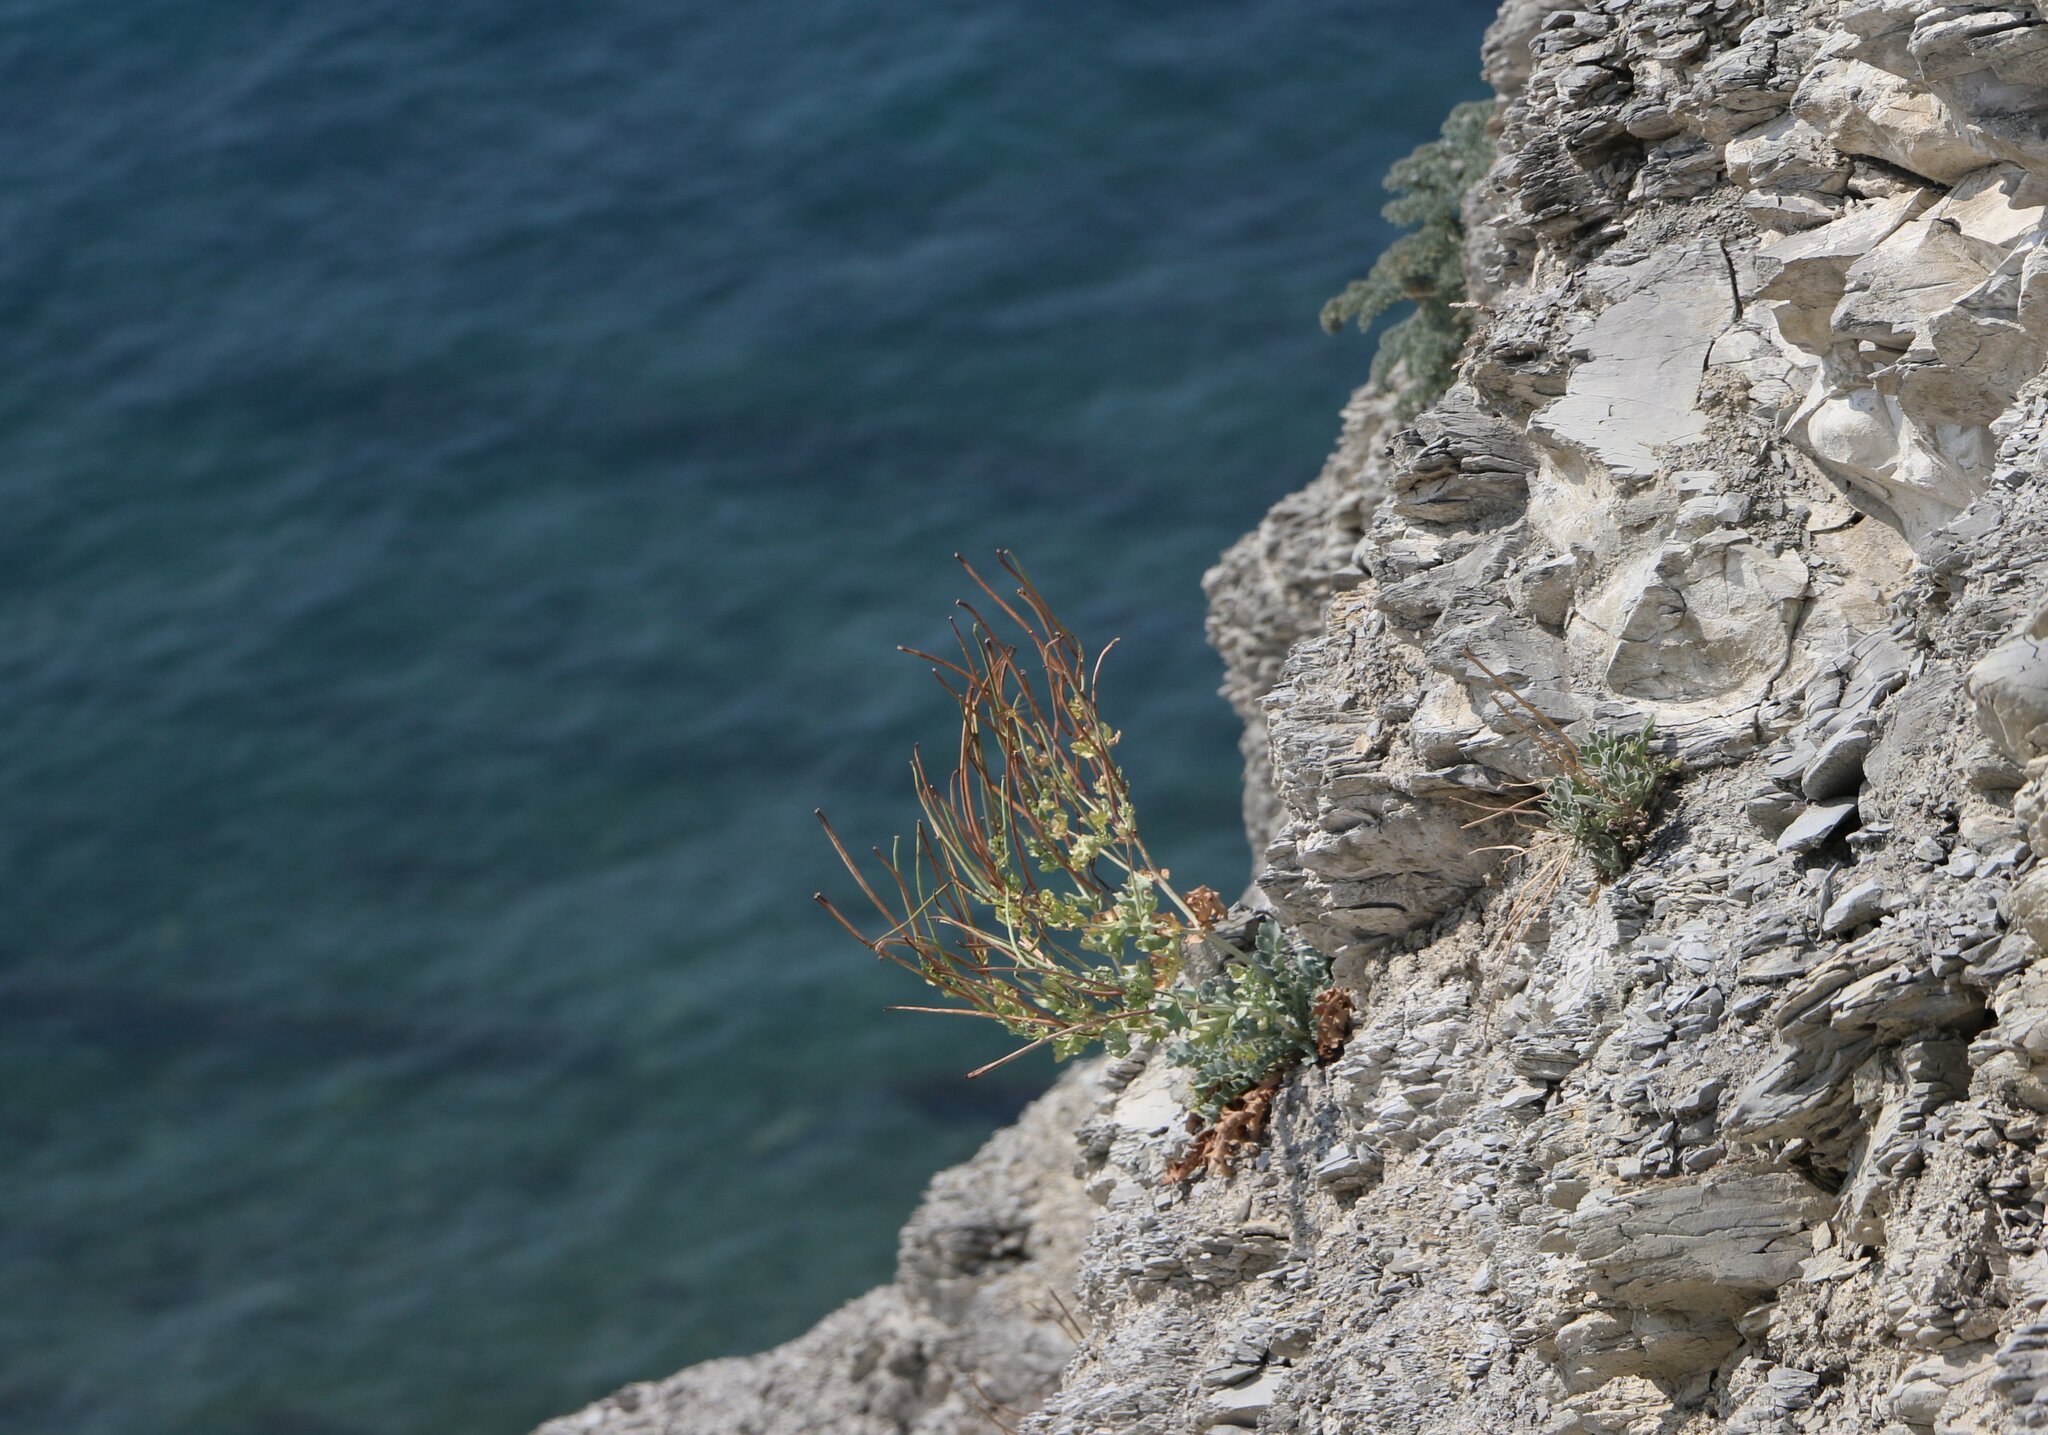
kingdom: Plantae
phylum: Tracheophyta
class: Magnoliopsida
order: Ranunculales
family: Papaveraceae
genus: Glaucium
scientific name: Glaucium flavum
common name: Yellow horned-poppy
